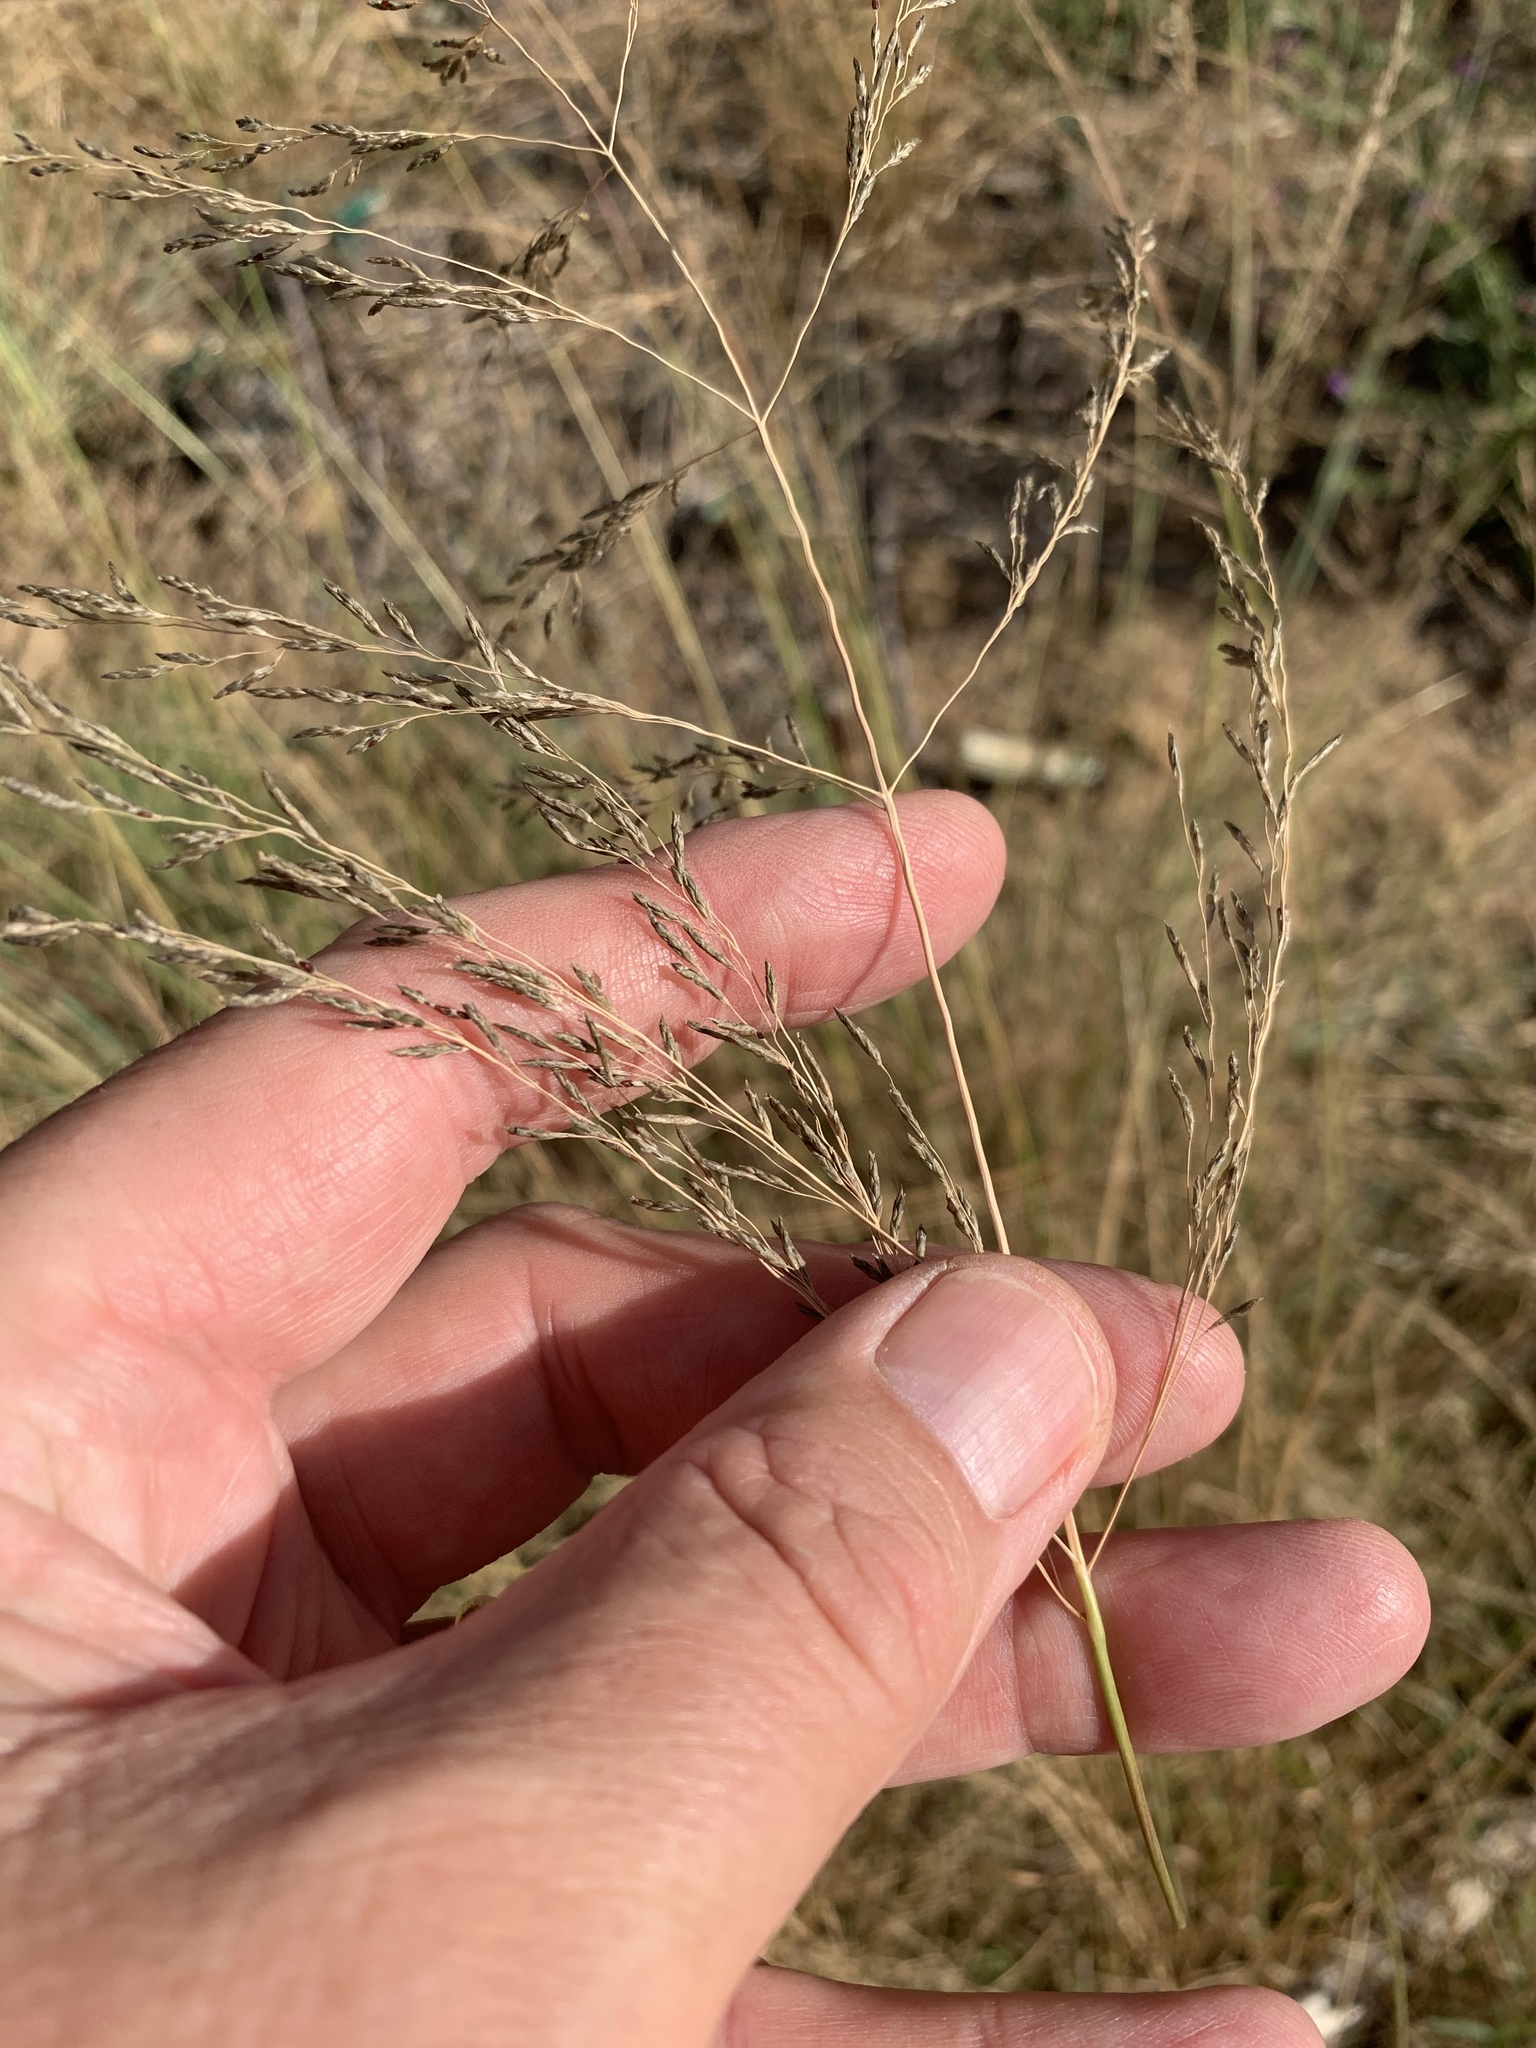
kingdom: Plantae
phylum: Tracheophyta
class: Liliopsida
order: Poales
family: Poaceae
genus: Eragrostis
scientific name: Eragrostis curvula
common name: African love-grass
